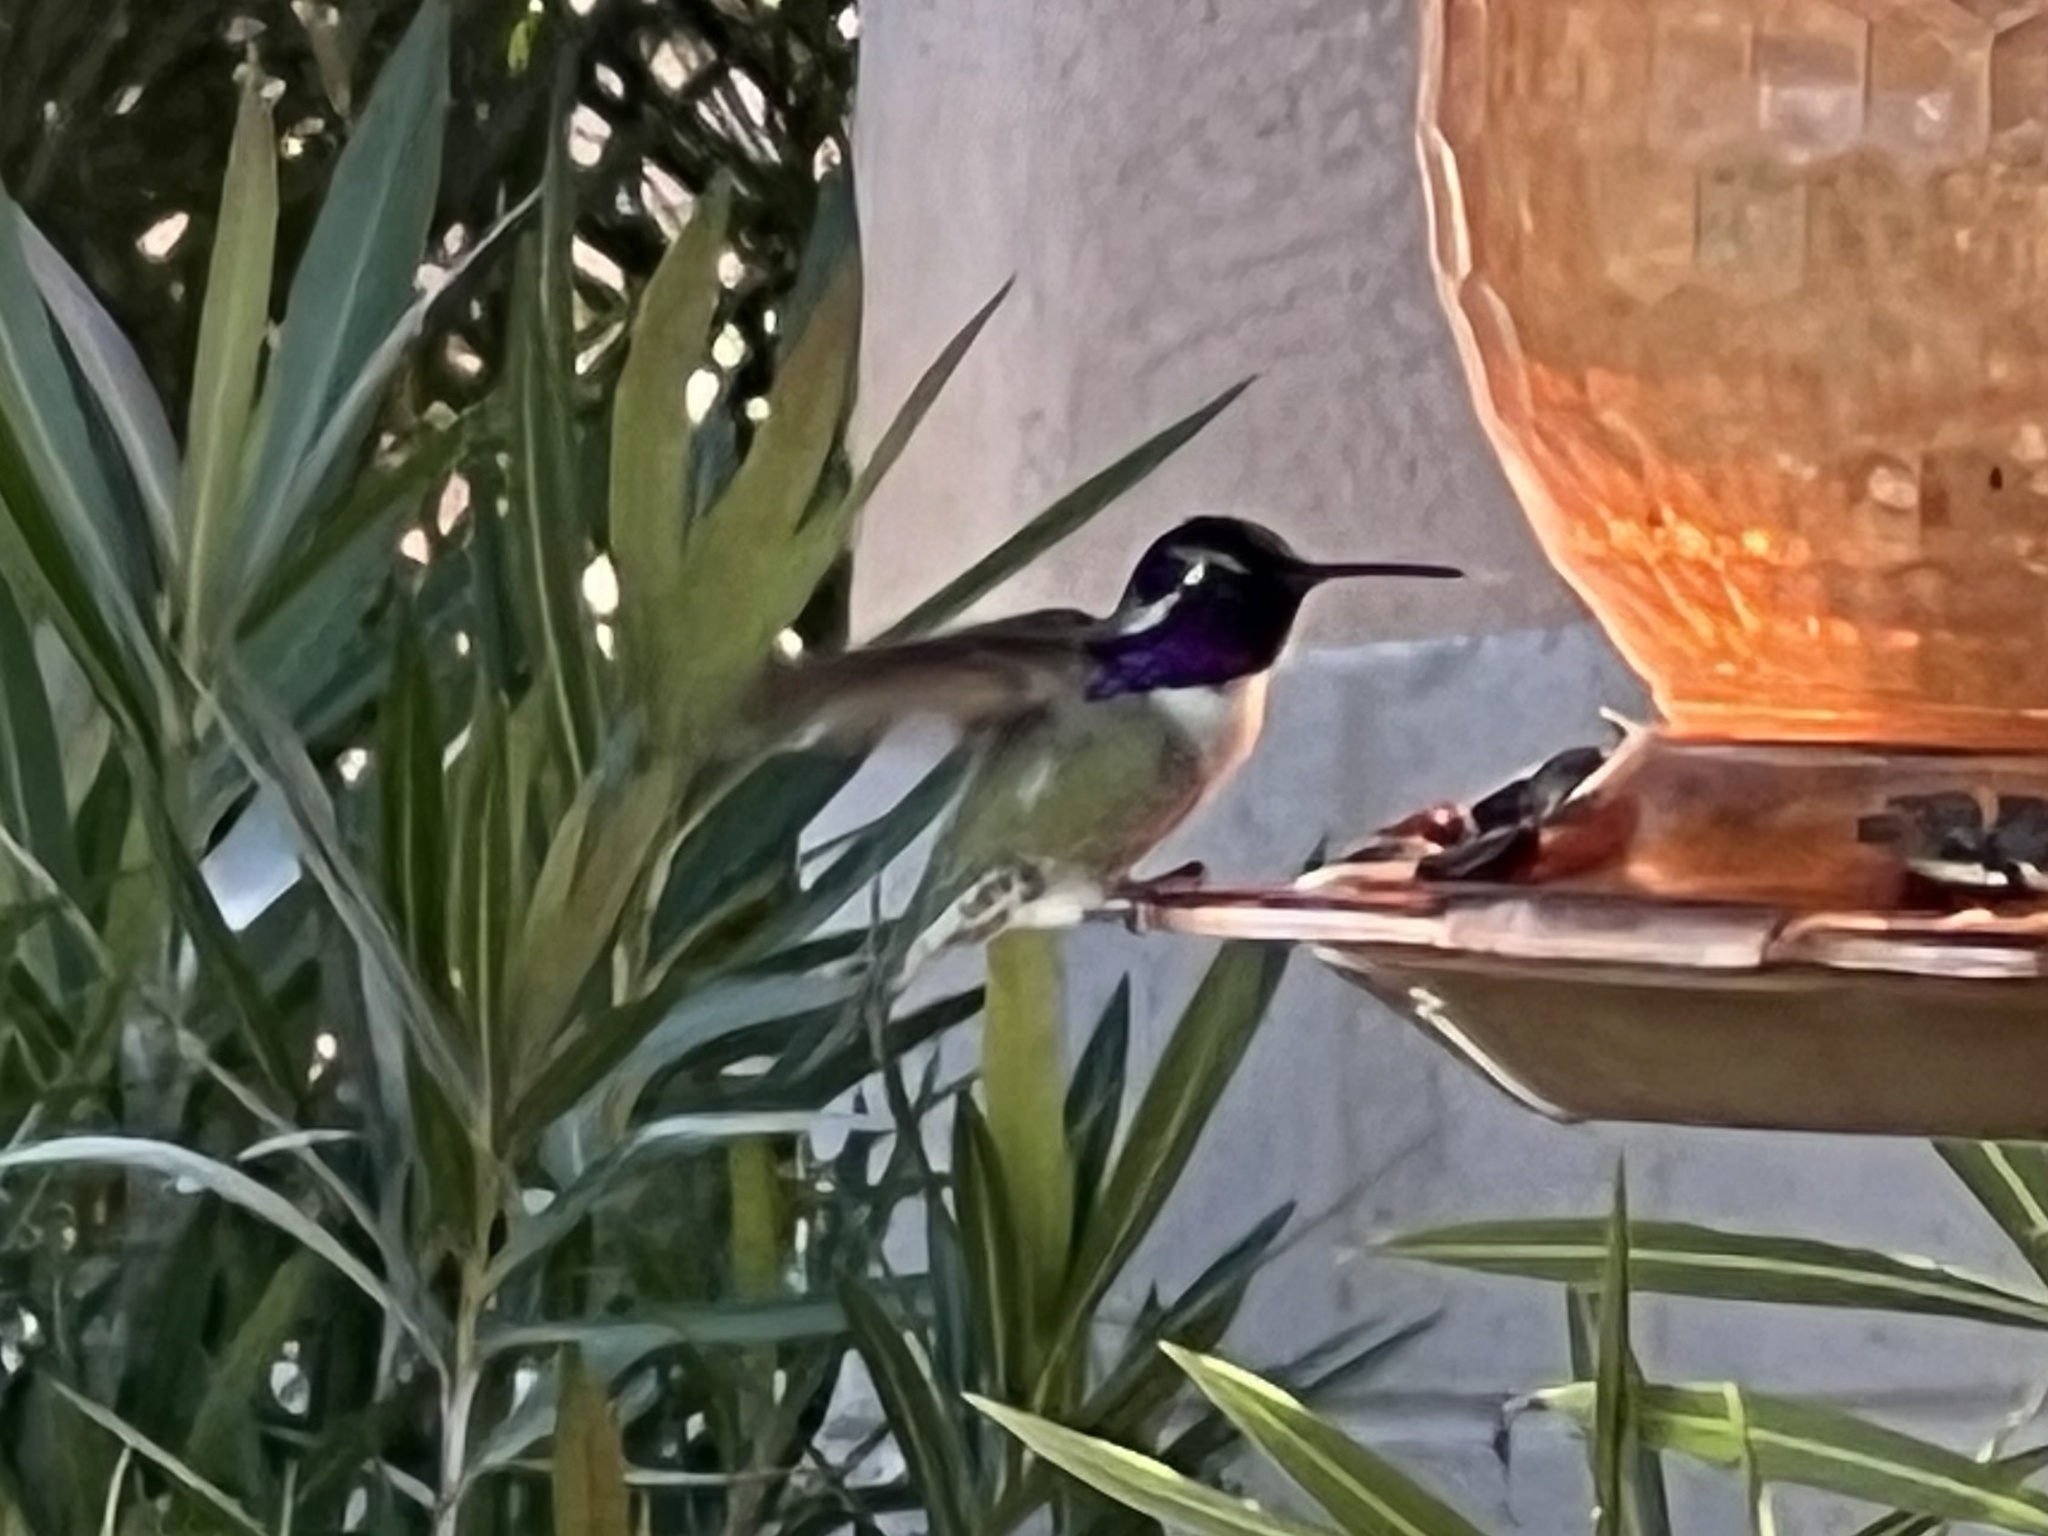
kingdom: Animalia
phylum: Chordata
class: Aves
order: Apodiformes
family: Trochilidae
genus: Calypte
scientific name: Calypte costae
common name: Costa's hummingbird
